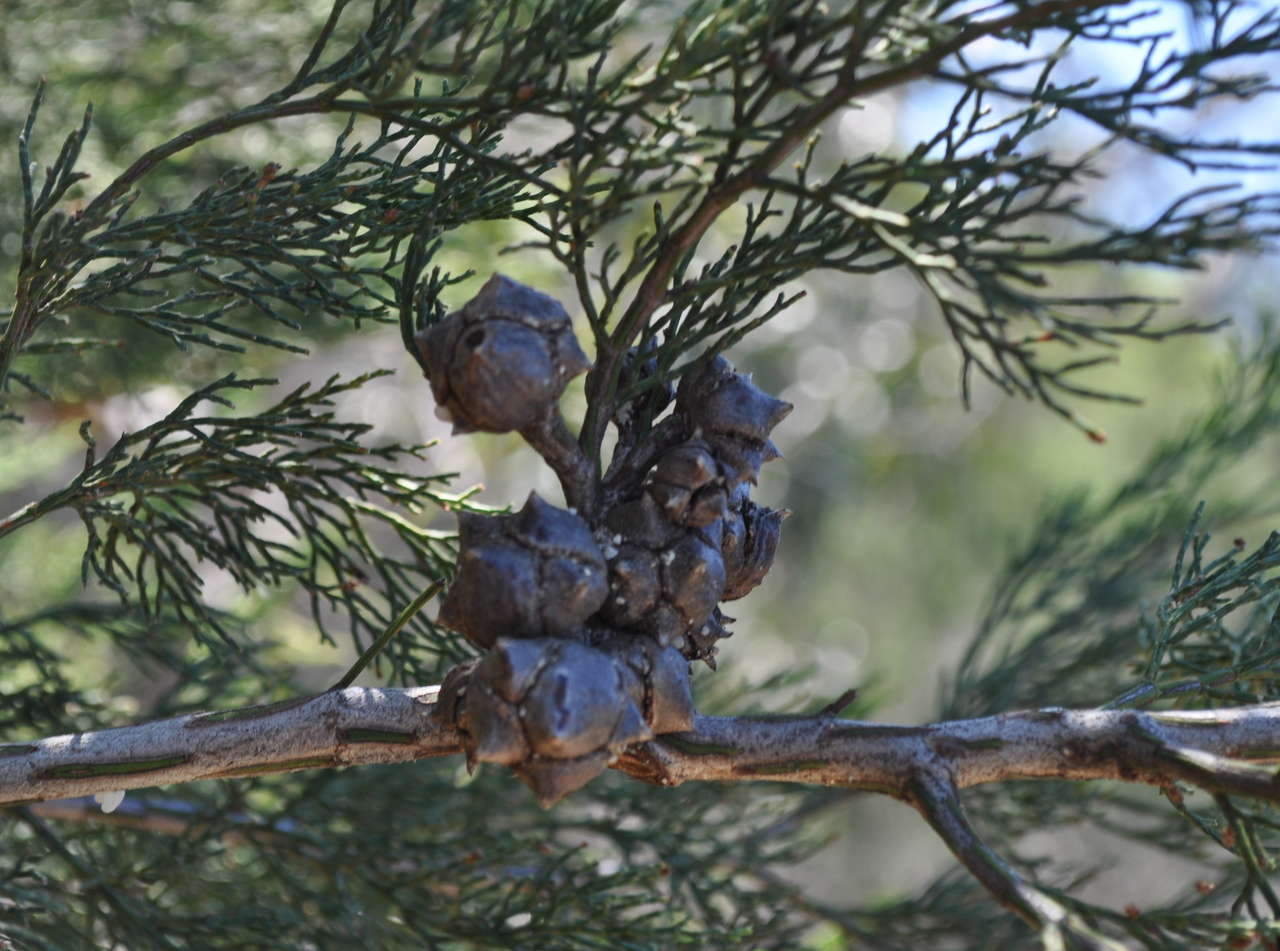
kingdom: Plantae
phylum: Tracheophyta
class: Pinopsida
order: Pinales
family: Cupressaceae
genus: Callitris
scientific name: Callitris rhomboidea
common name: Illawara mountain pine
